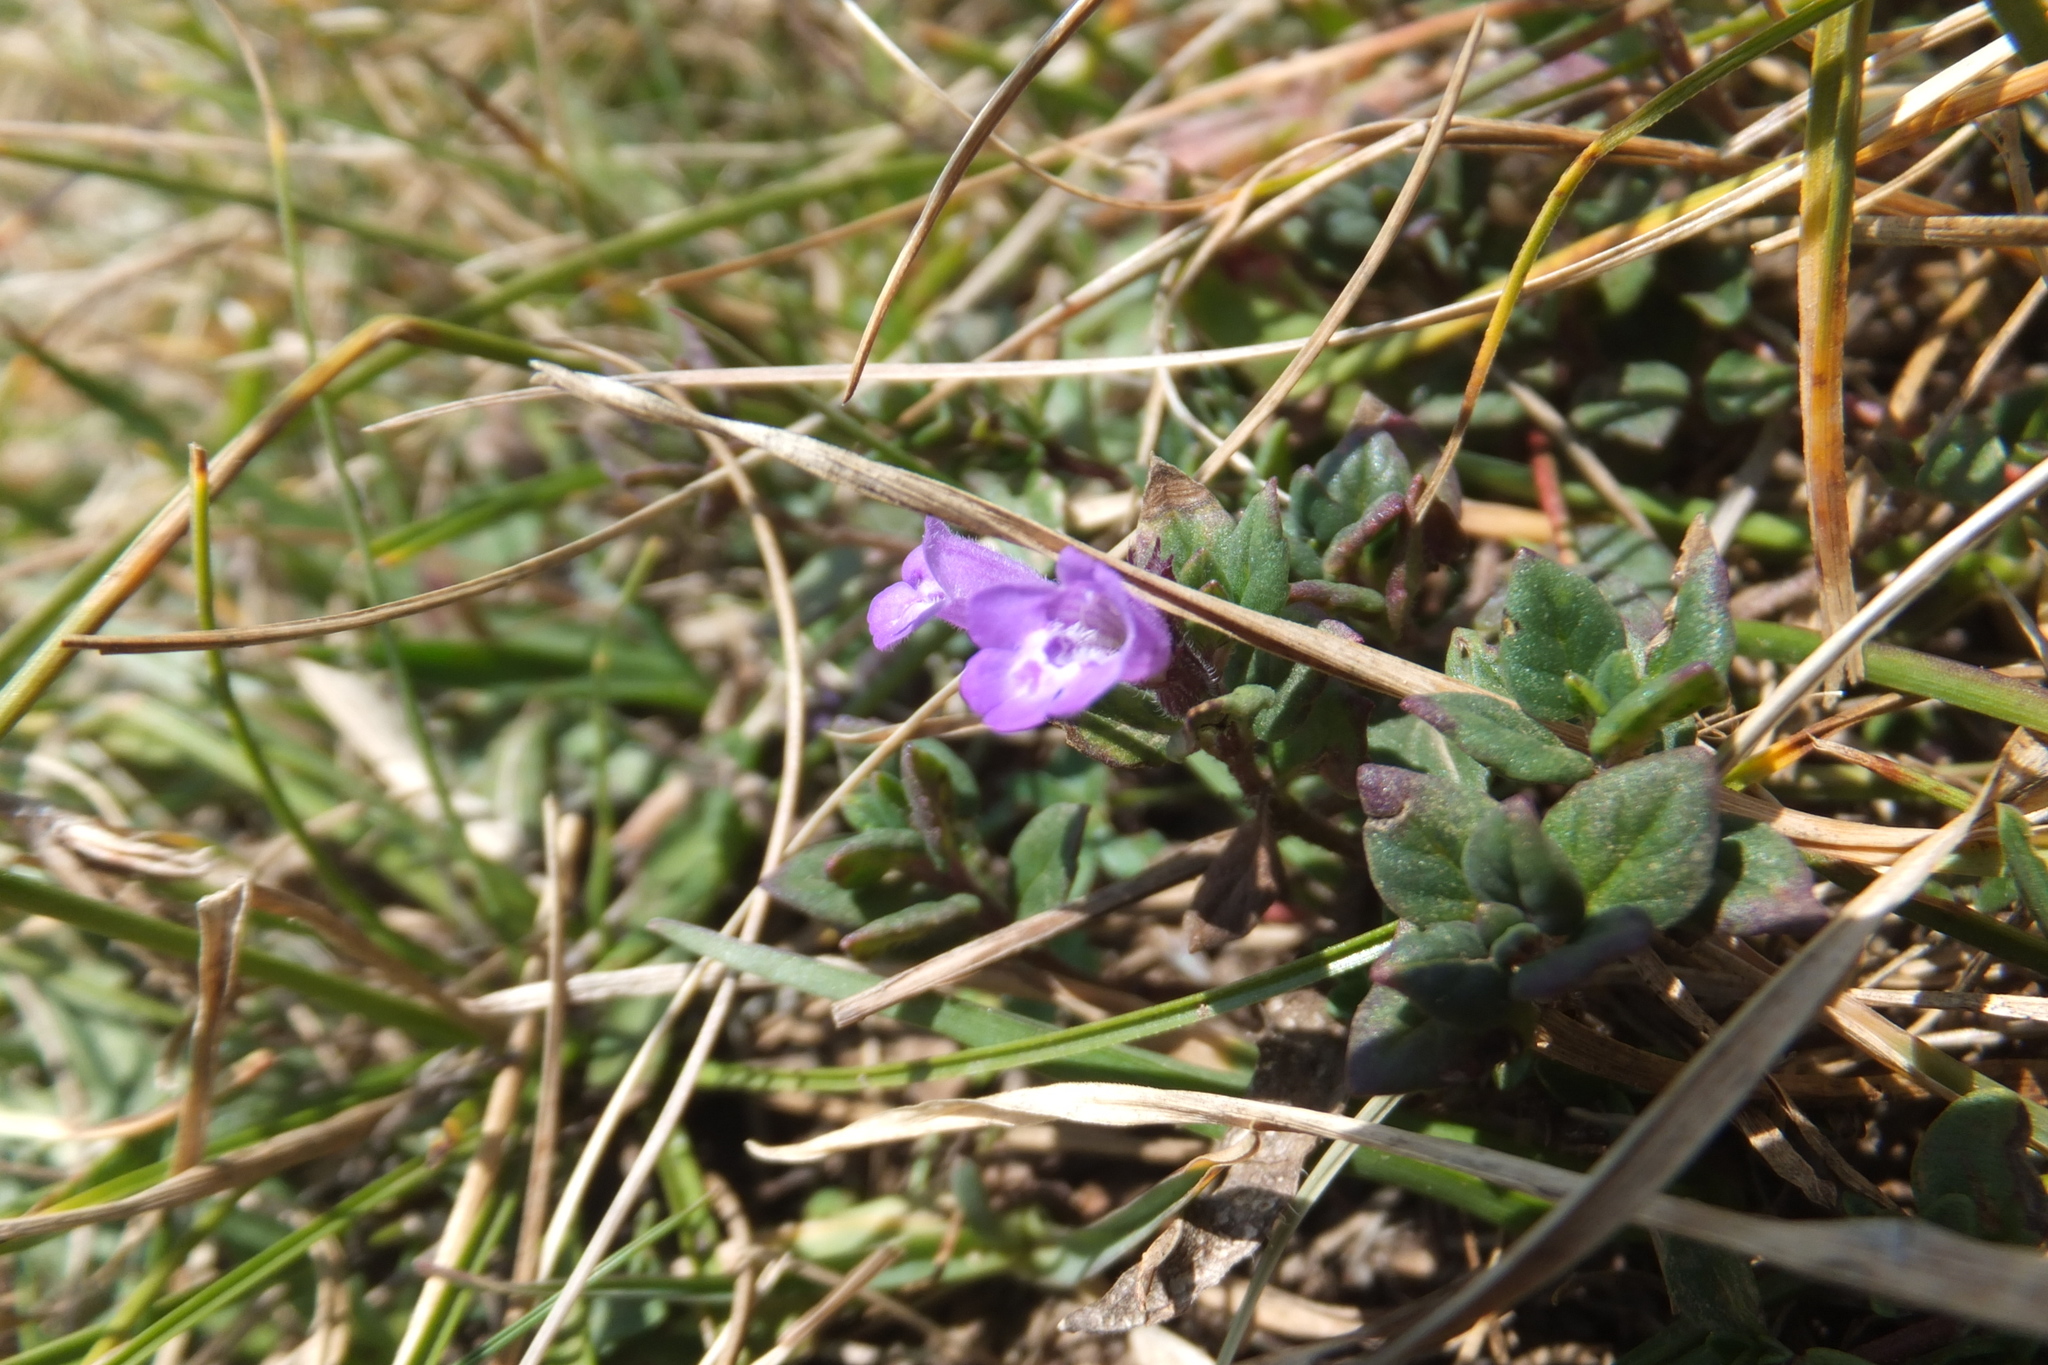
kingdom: Plantae
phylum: Tracheophyta
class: Magnoliopsida
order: Lamiales
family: Lamiaceae
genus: Clinopodium
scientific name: Clinopodium alpinum
